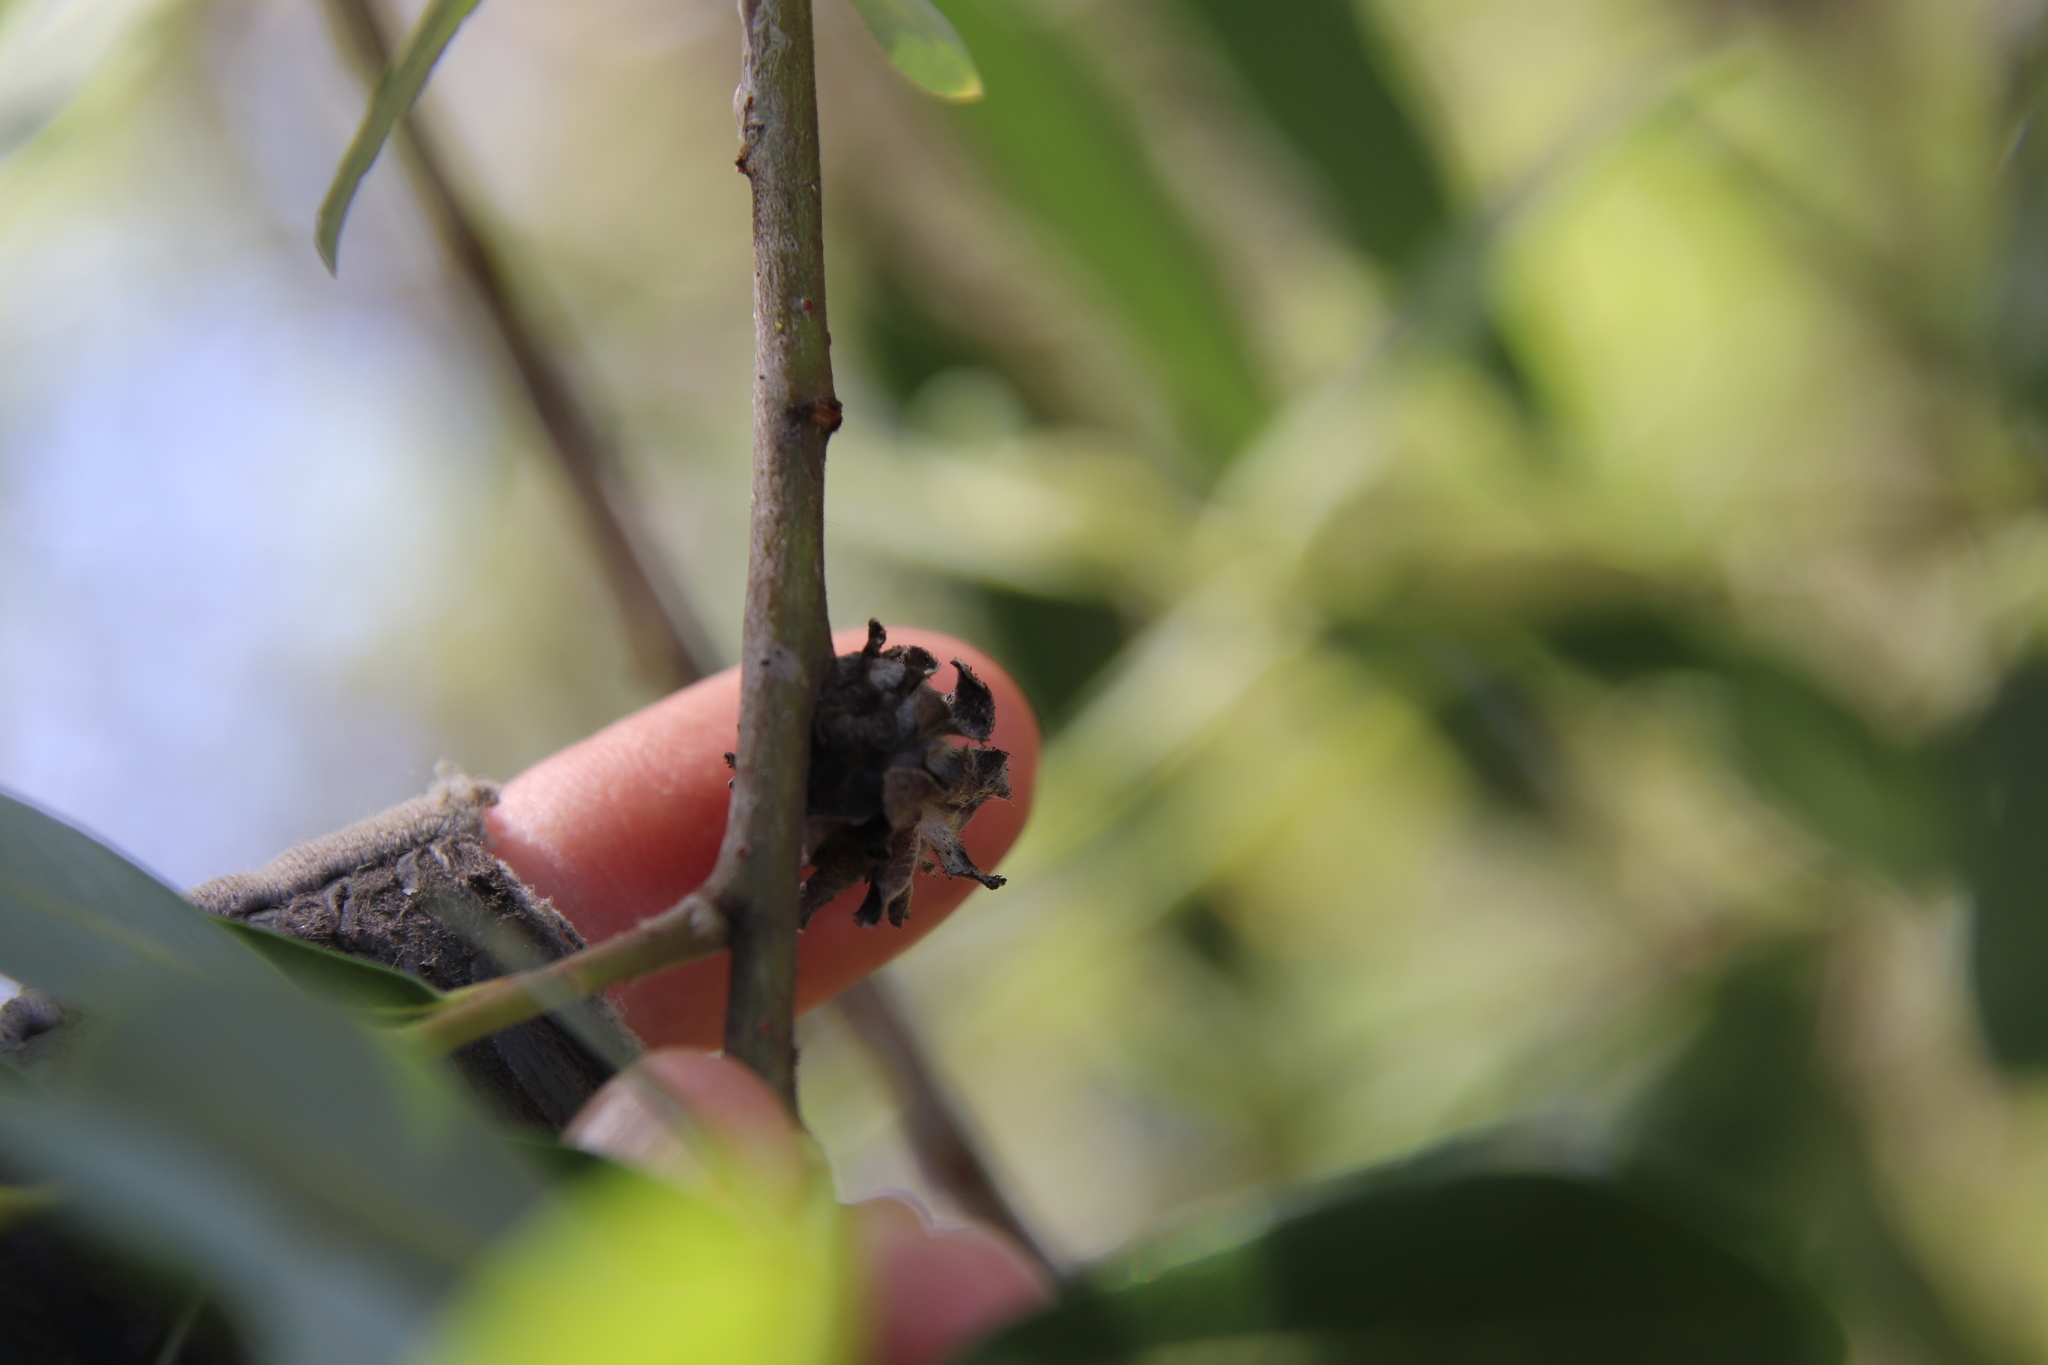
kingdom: Animalia
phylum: Arthropoda
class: Insecta
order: Diptera
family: Cecidomyiidae
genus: Rabdophaga
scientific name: Rabdophaga salicisbrassicoides
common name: Willow cabbagegall midge
